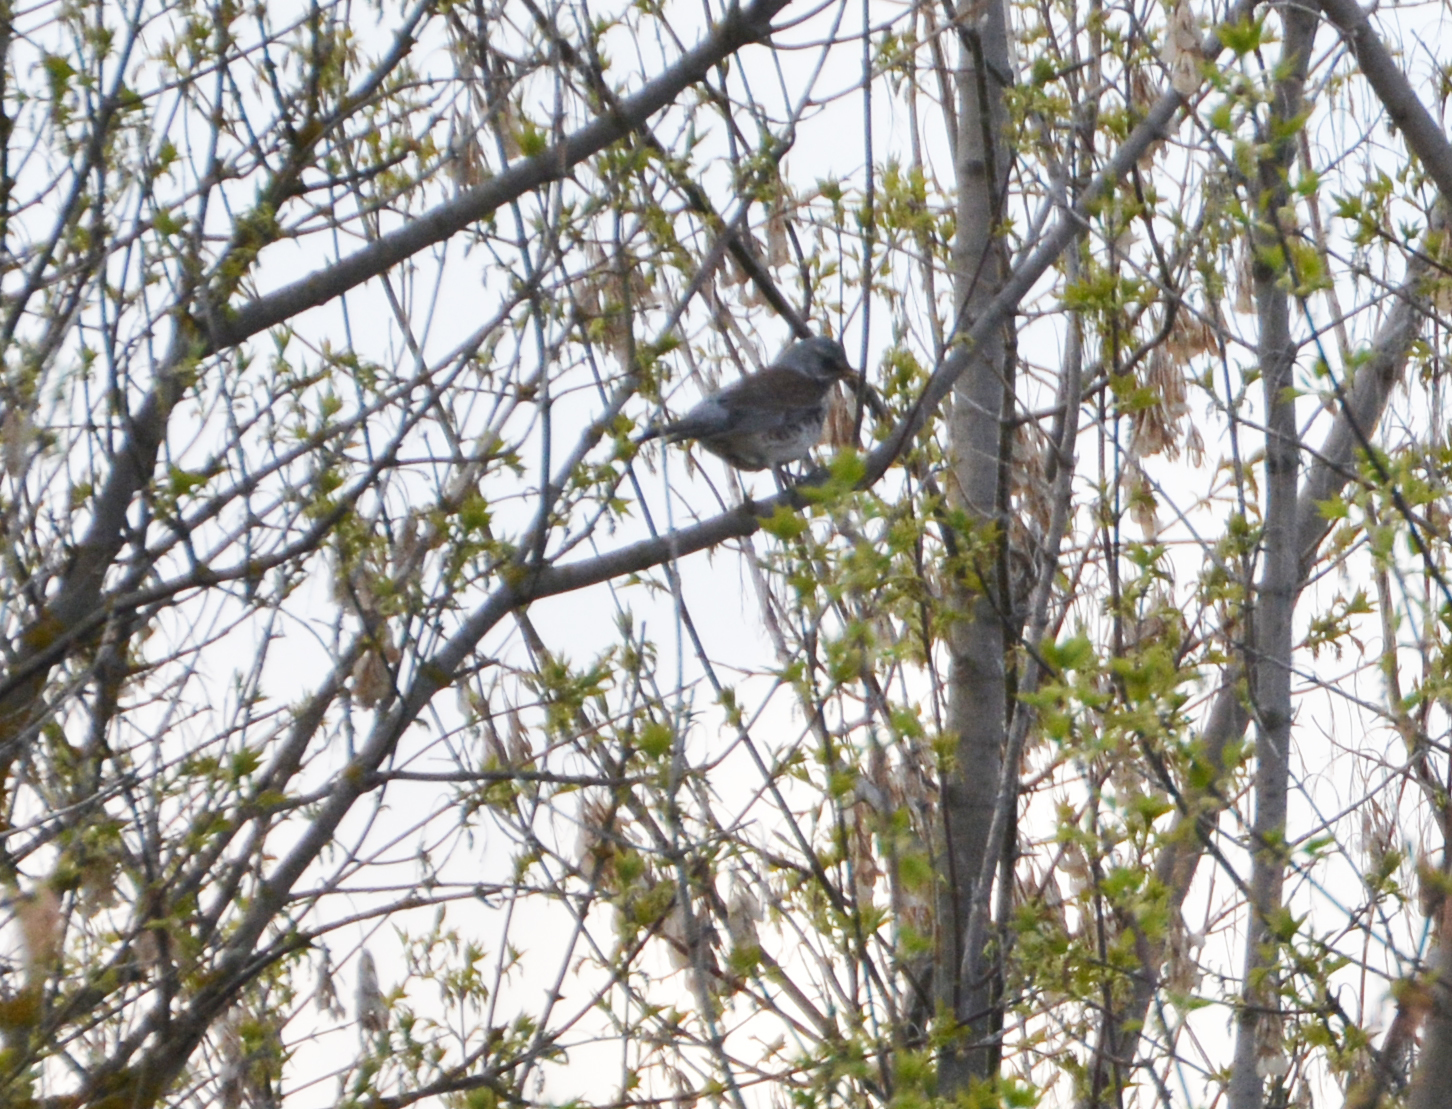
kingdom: Animalia
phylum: Chordata
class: Aves
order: Passeriformes
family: Turdidae
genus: Turdus
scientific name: Turdus pilaris
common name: Fieldfare
